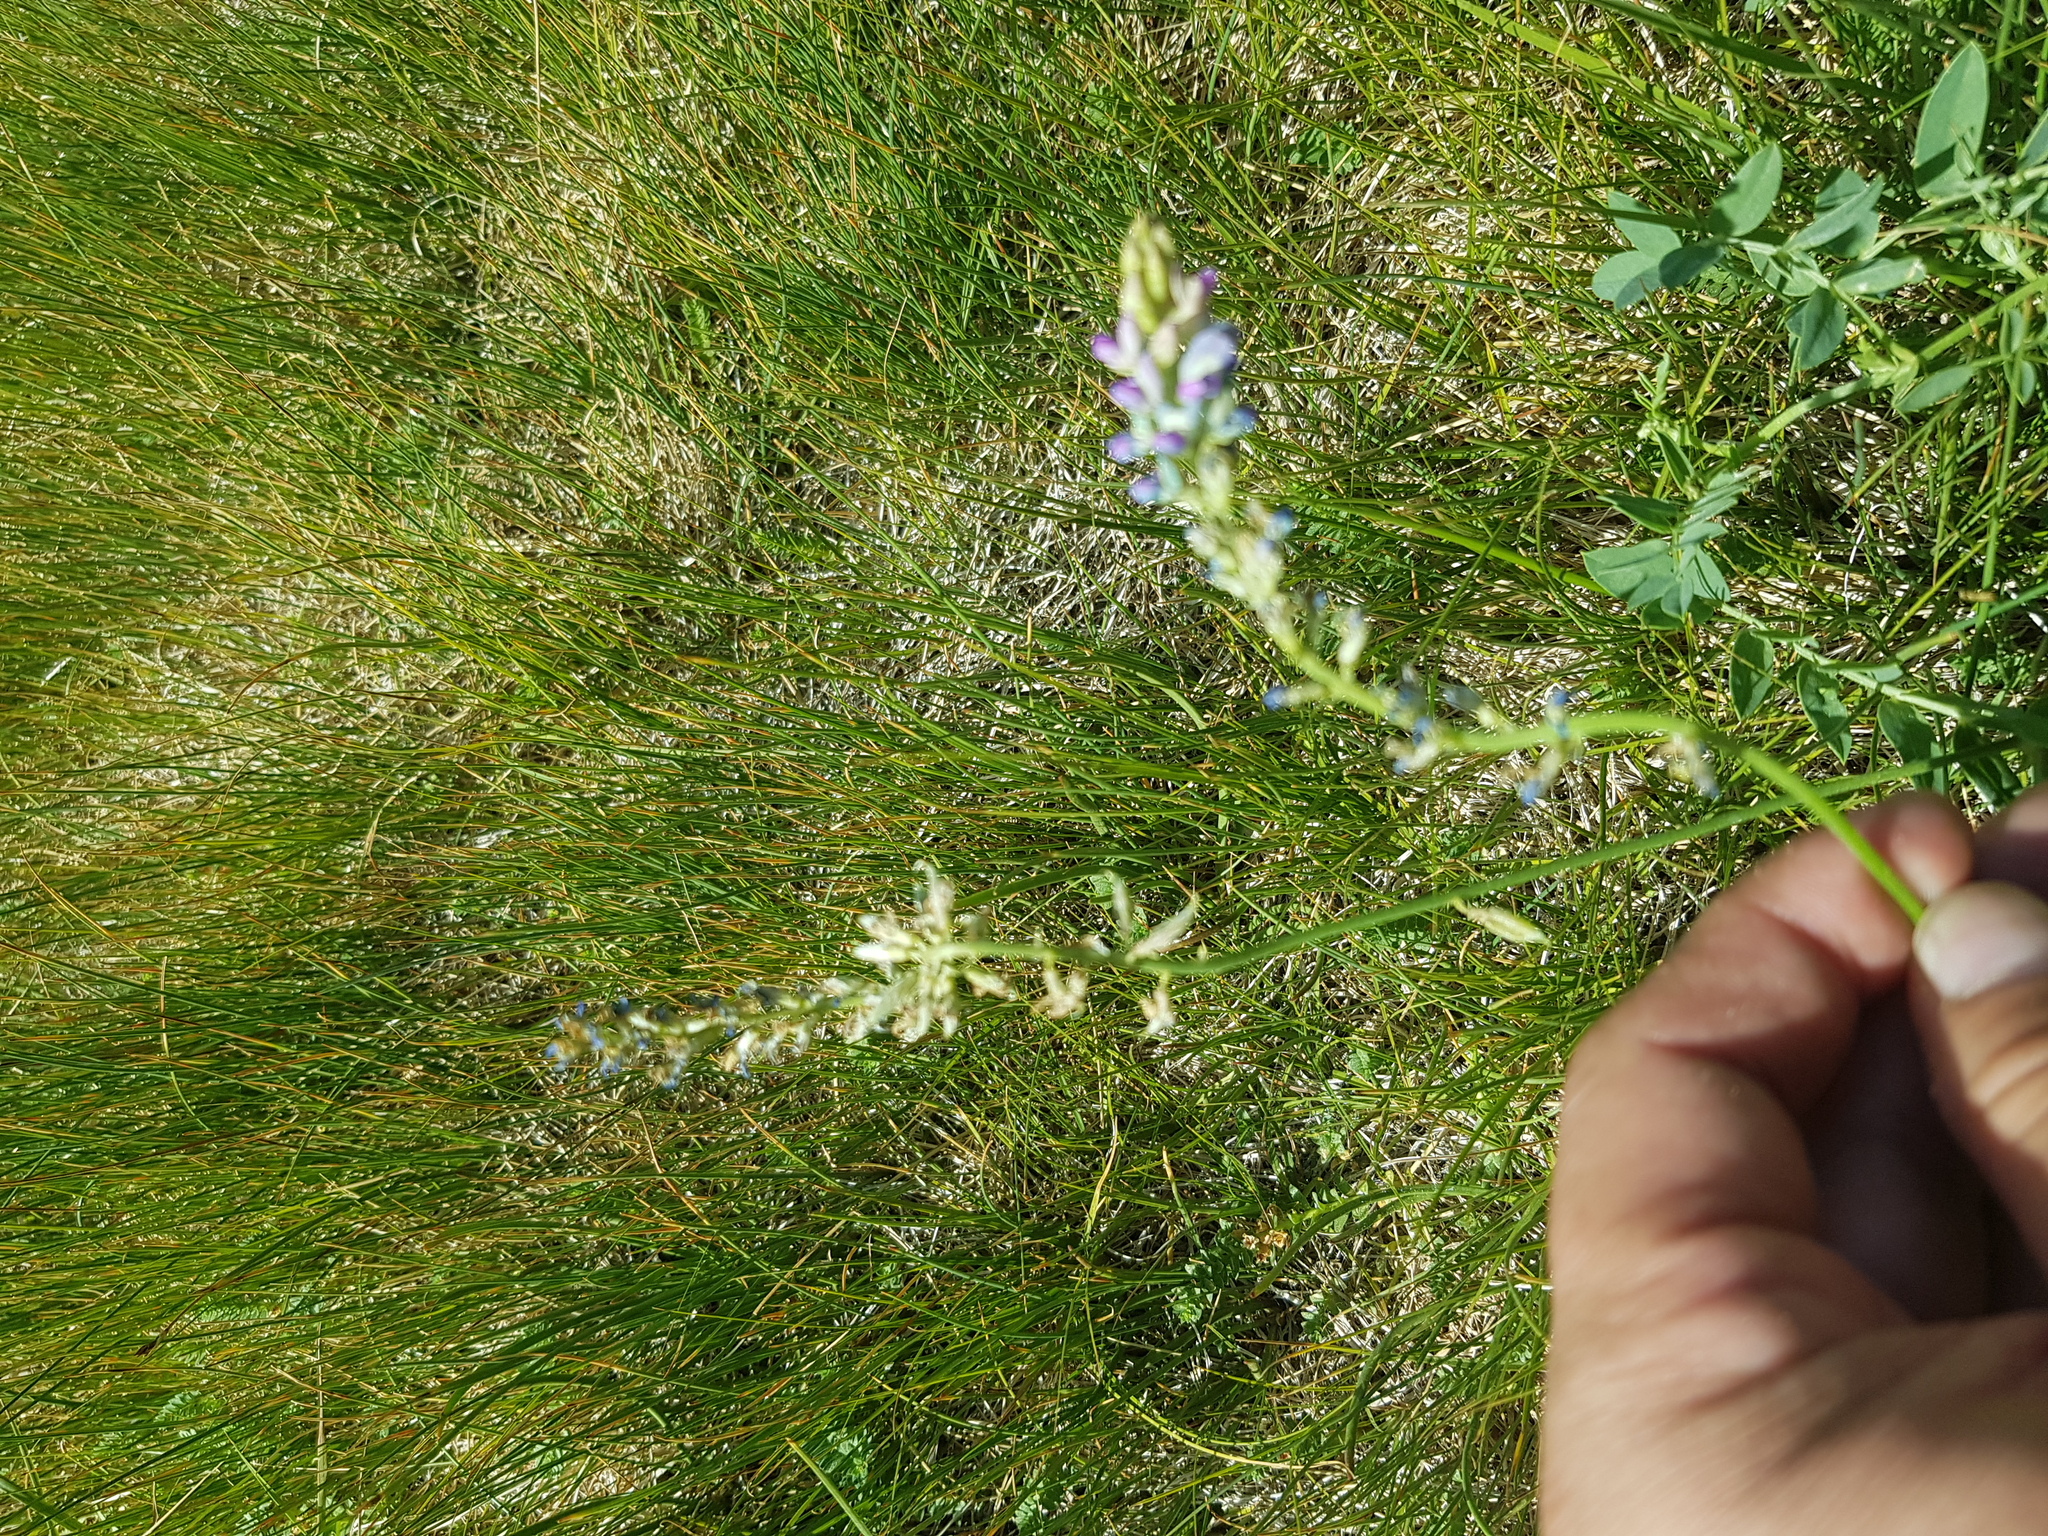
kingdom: Plantae
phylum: Tracheophyta
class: Magnoliopsida
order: Fabales
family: Fabaceae
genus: Oxytropis
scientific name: Oxytropis glabra
